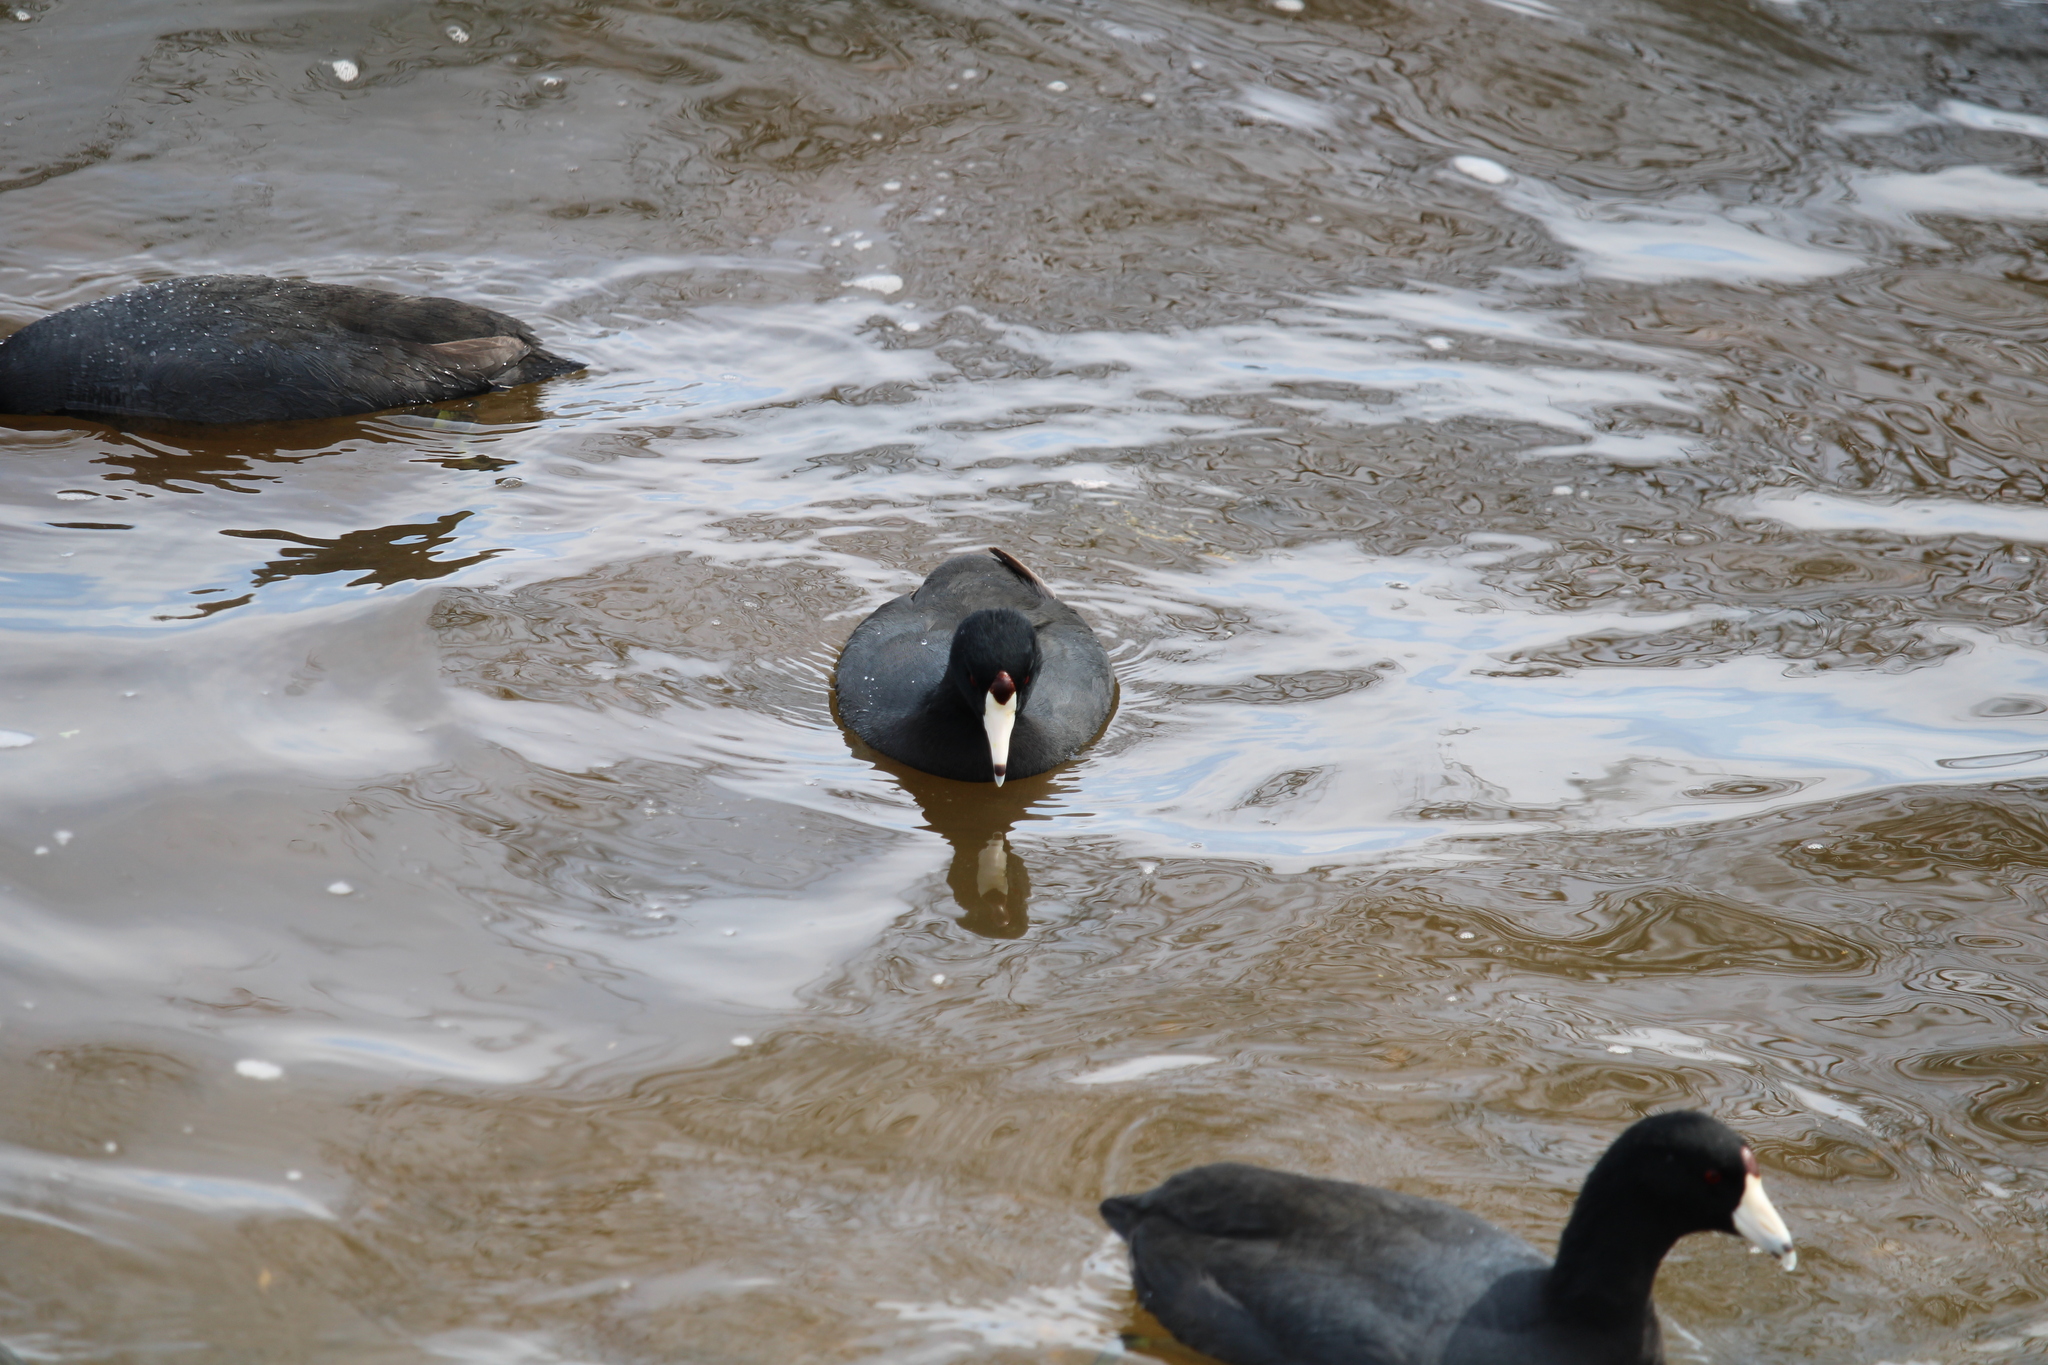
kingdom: Animalia
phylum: Chordata
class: Aves
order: Gruiformes
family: Rallidae
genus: Fulica
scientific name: Fulica americana
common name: American coot
